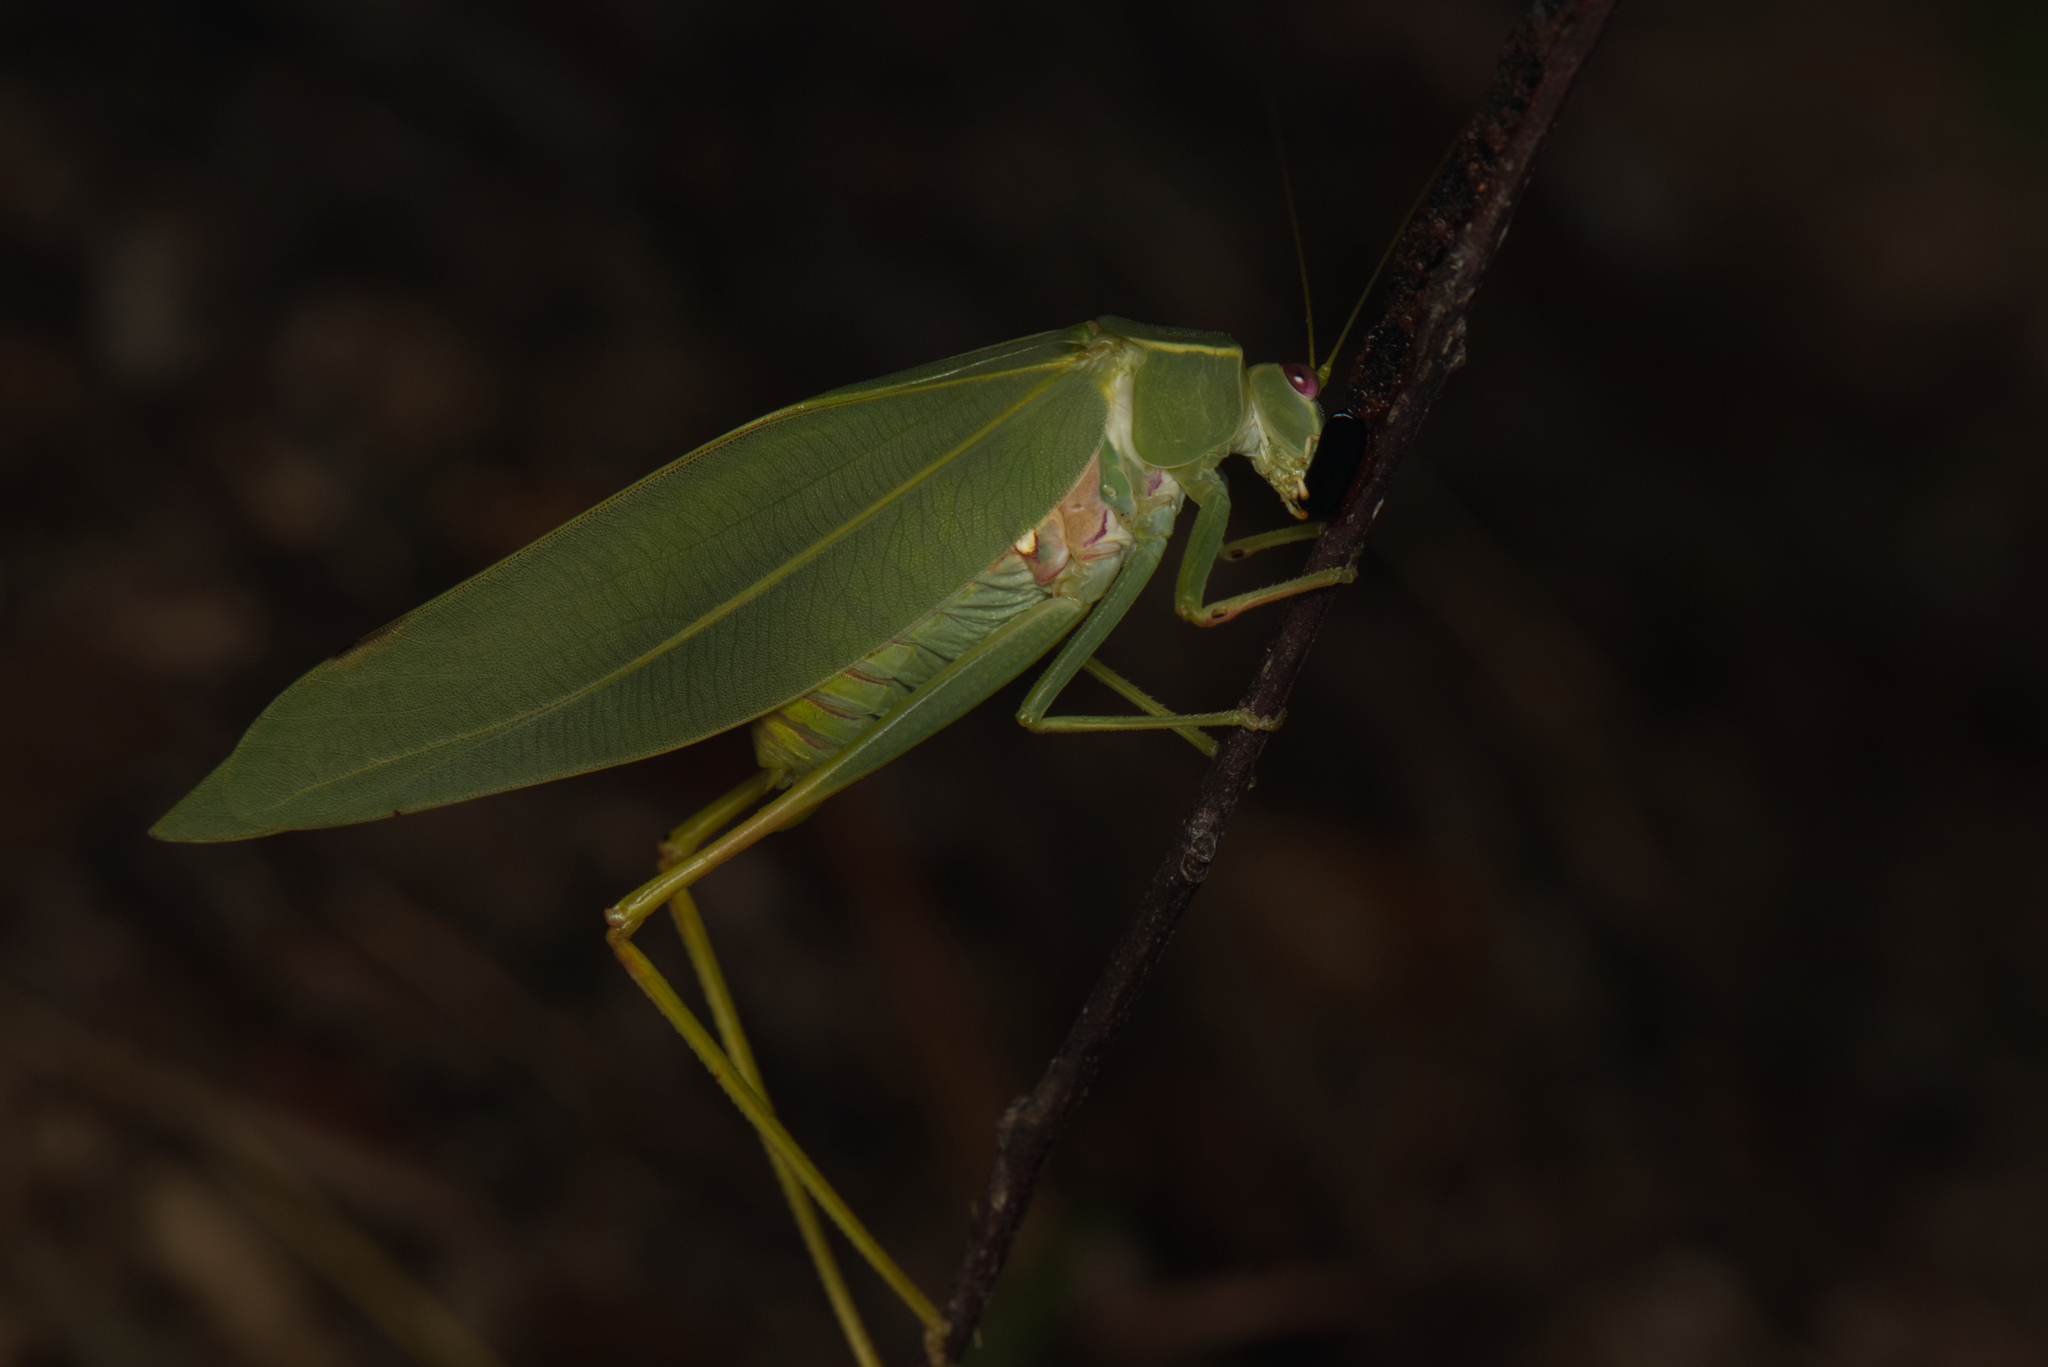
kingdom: Animalia
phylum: Arthropoda
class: Insecta
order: Orthoptera
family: Tettigoniidae
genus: Torbia
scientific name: Torbia viridissima
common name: Non-predaceous gum leaf katydid
